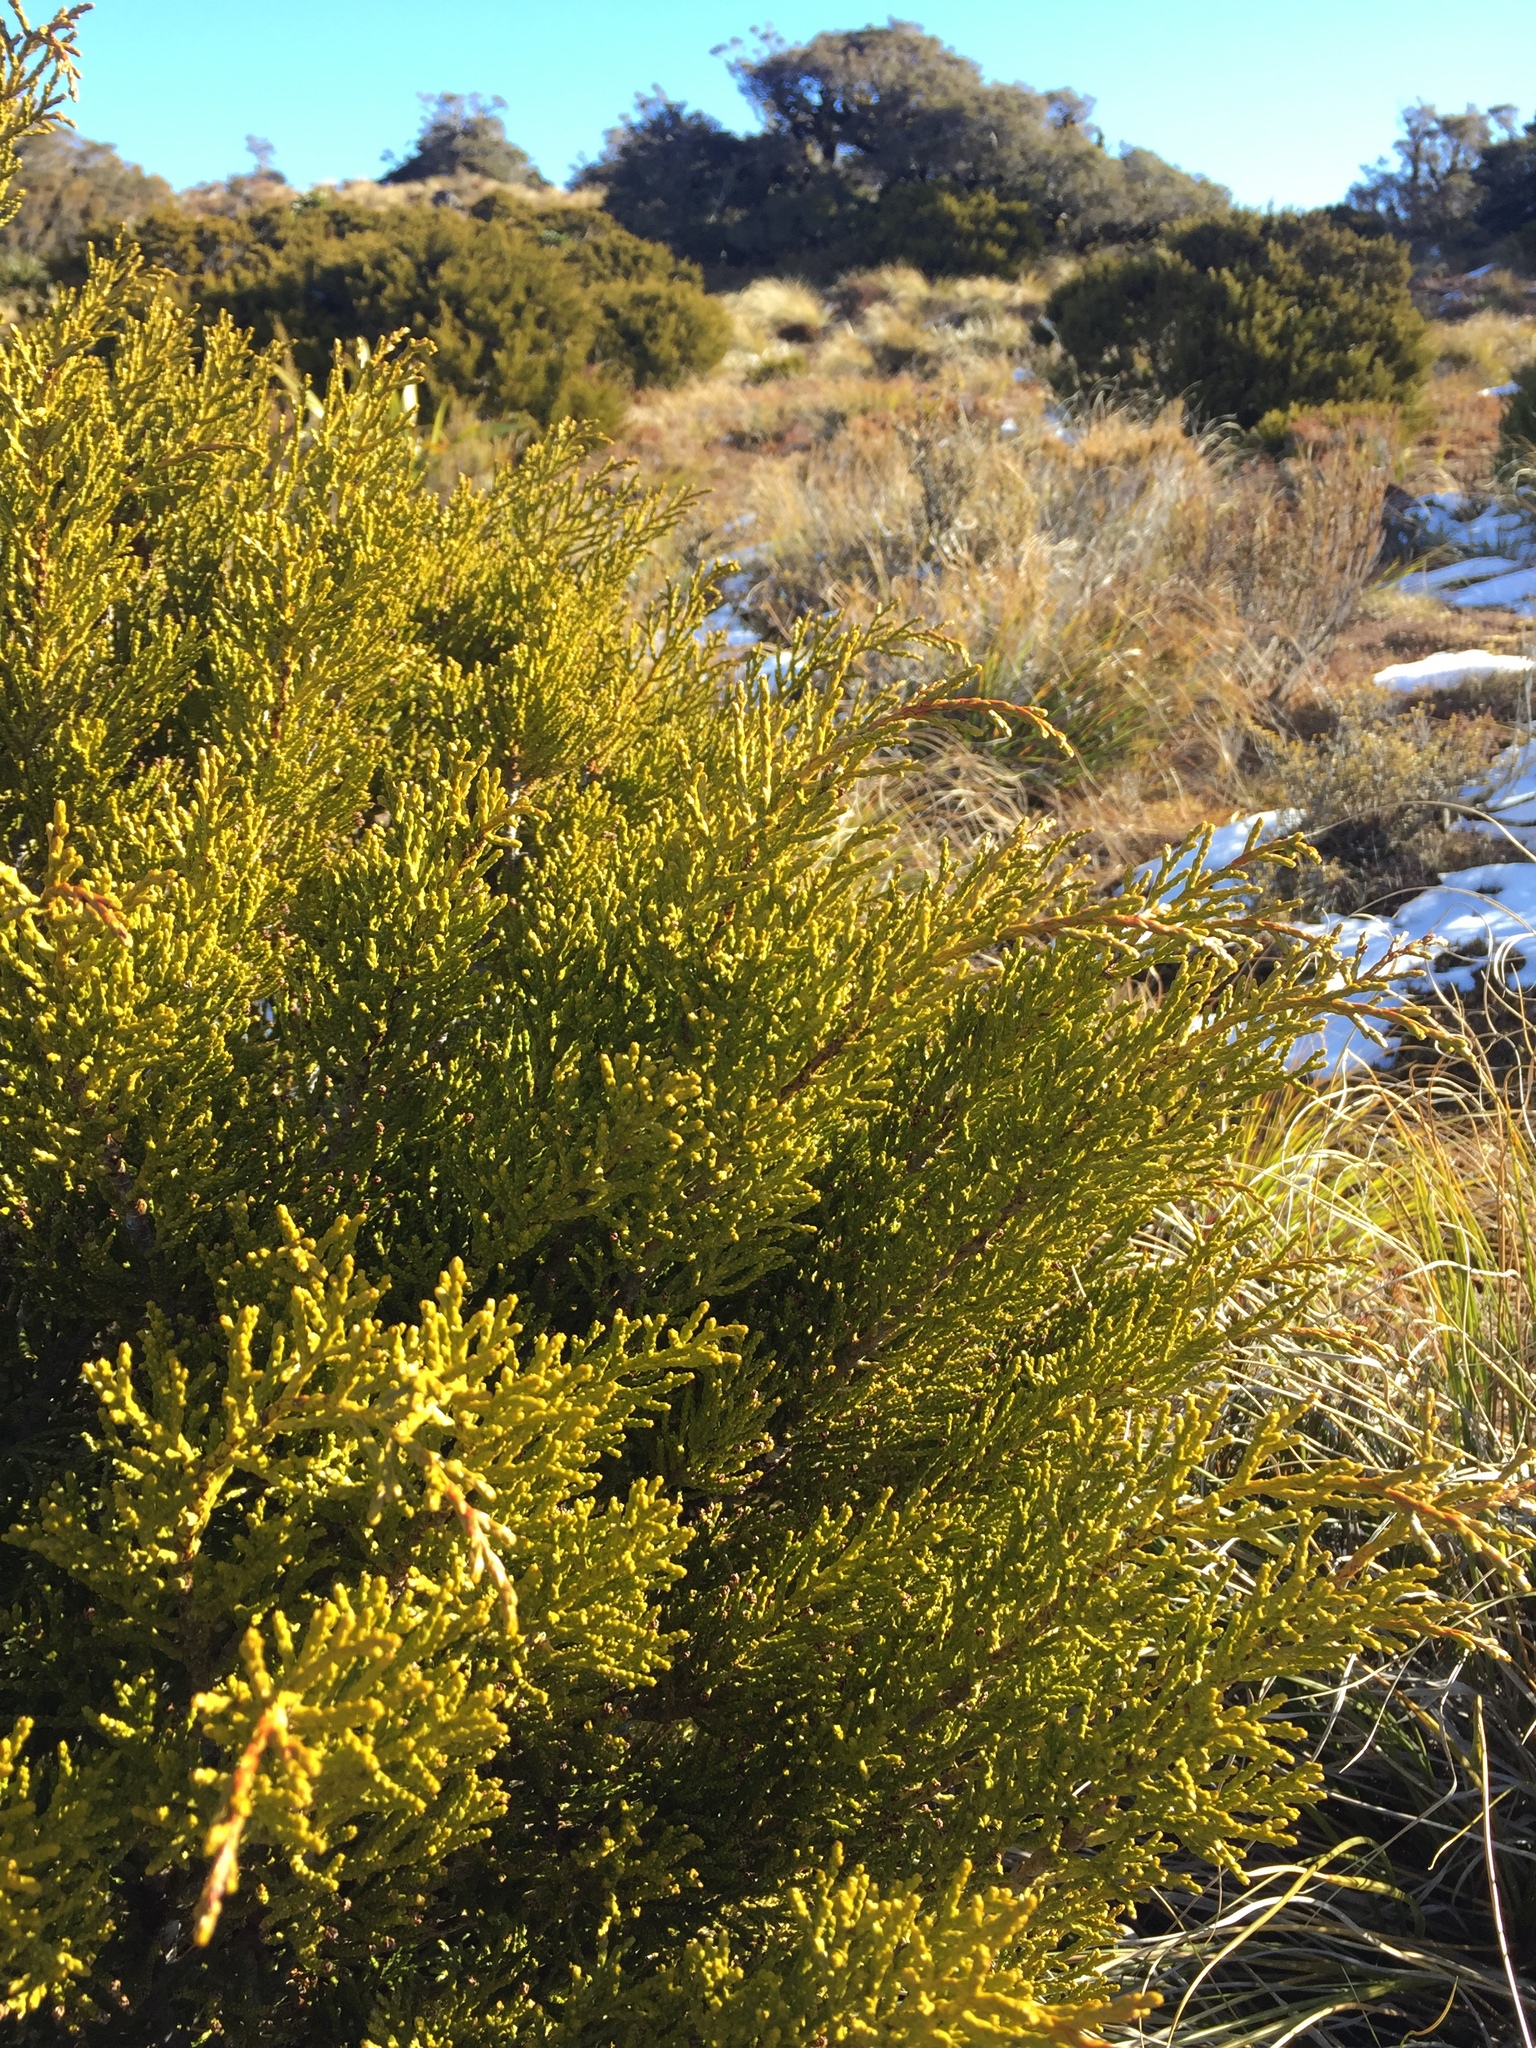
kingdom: Plantae
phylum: Tracheophyta
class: Pinopsida
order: Pinales
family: Podocarpaceae
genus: Halocarpus
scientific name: Halocarpus bidwillii
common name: Bog pine
